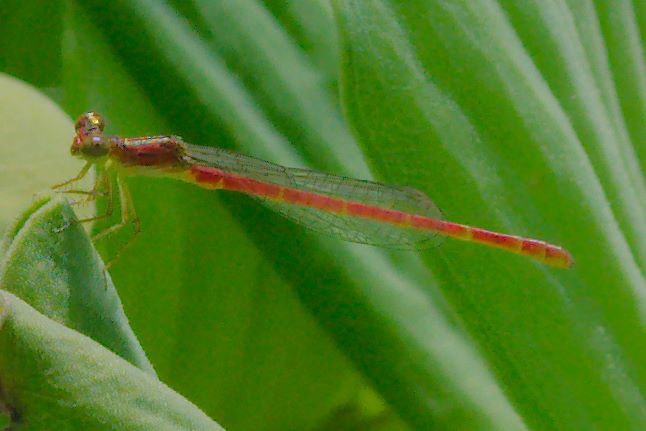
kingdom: Animalia
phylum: Arthropoda
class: Insecta
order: Odonata
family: Coenagrionidae
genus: Telebasis
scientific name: Telebasis byersi
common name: Duckweed firetail
